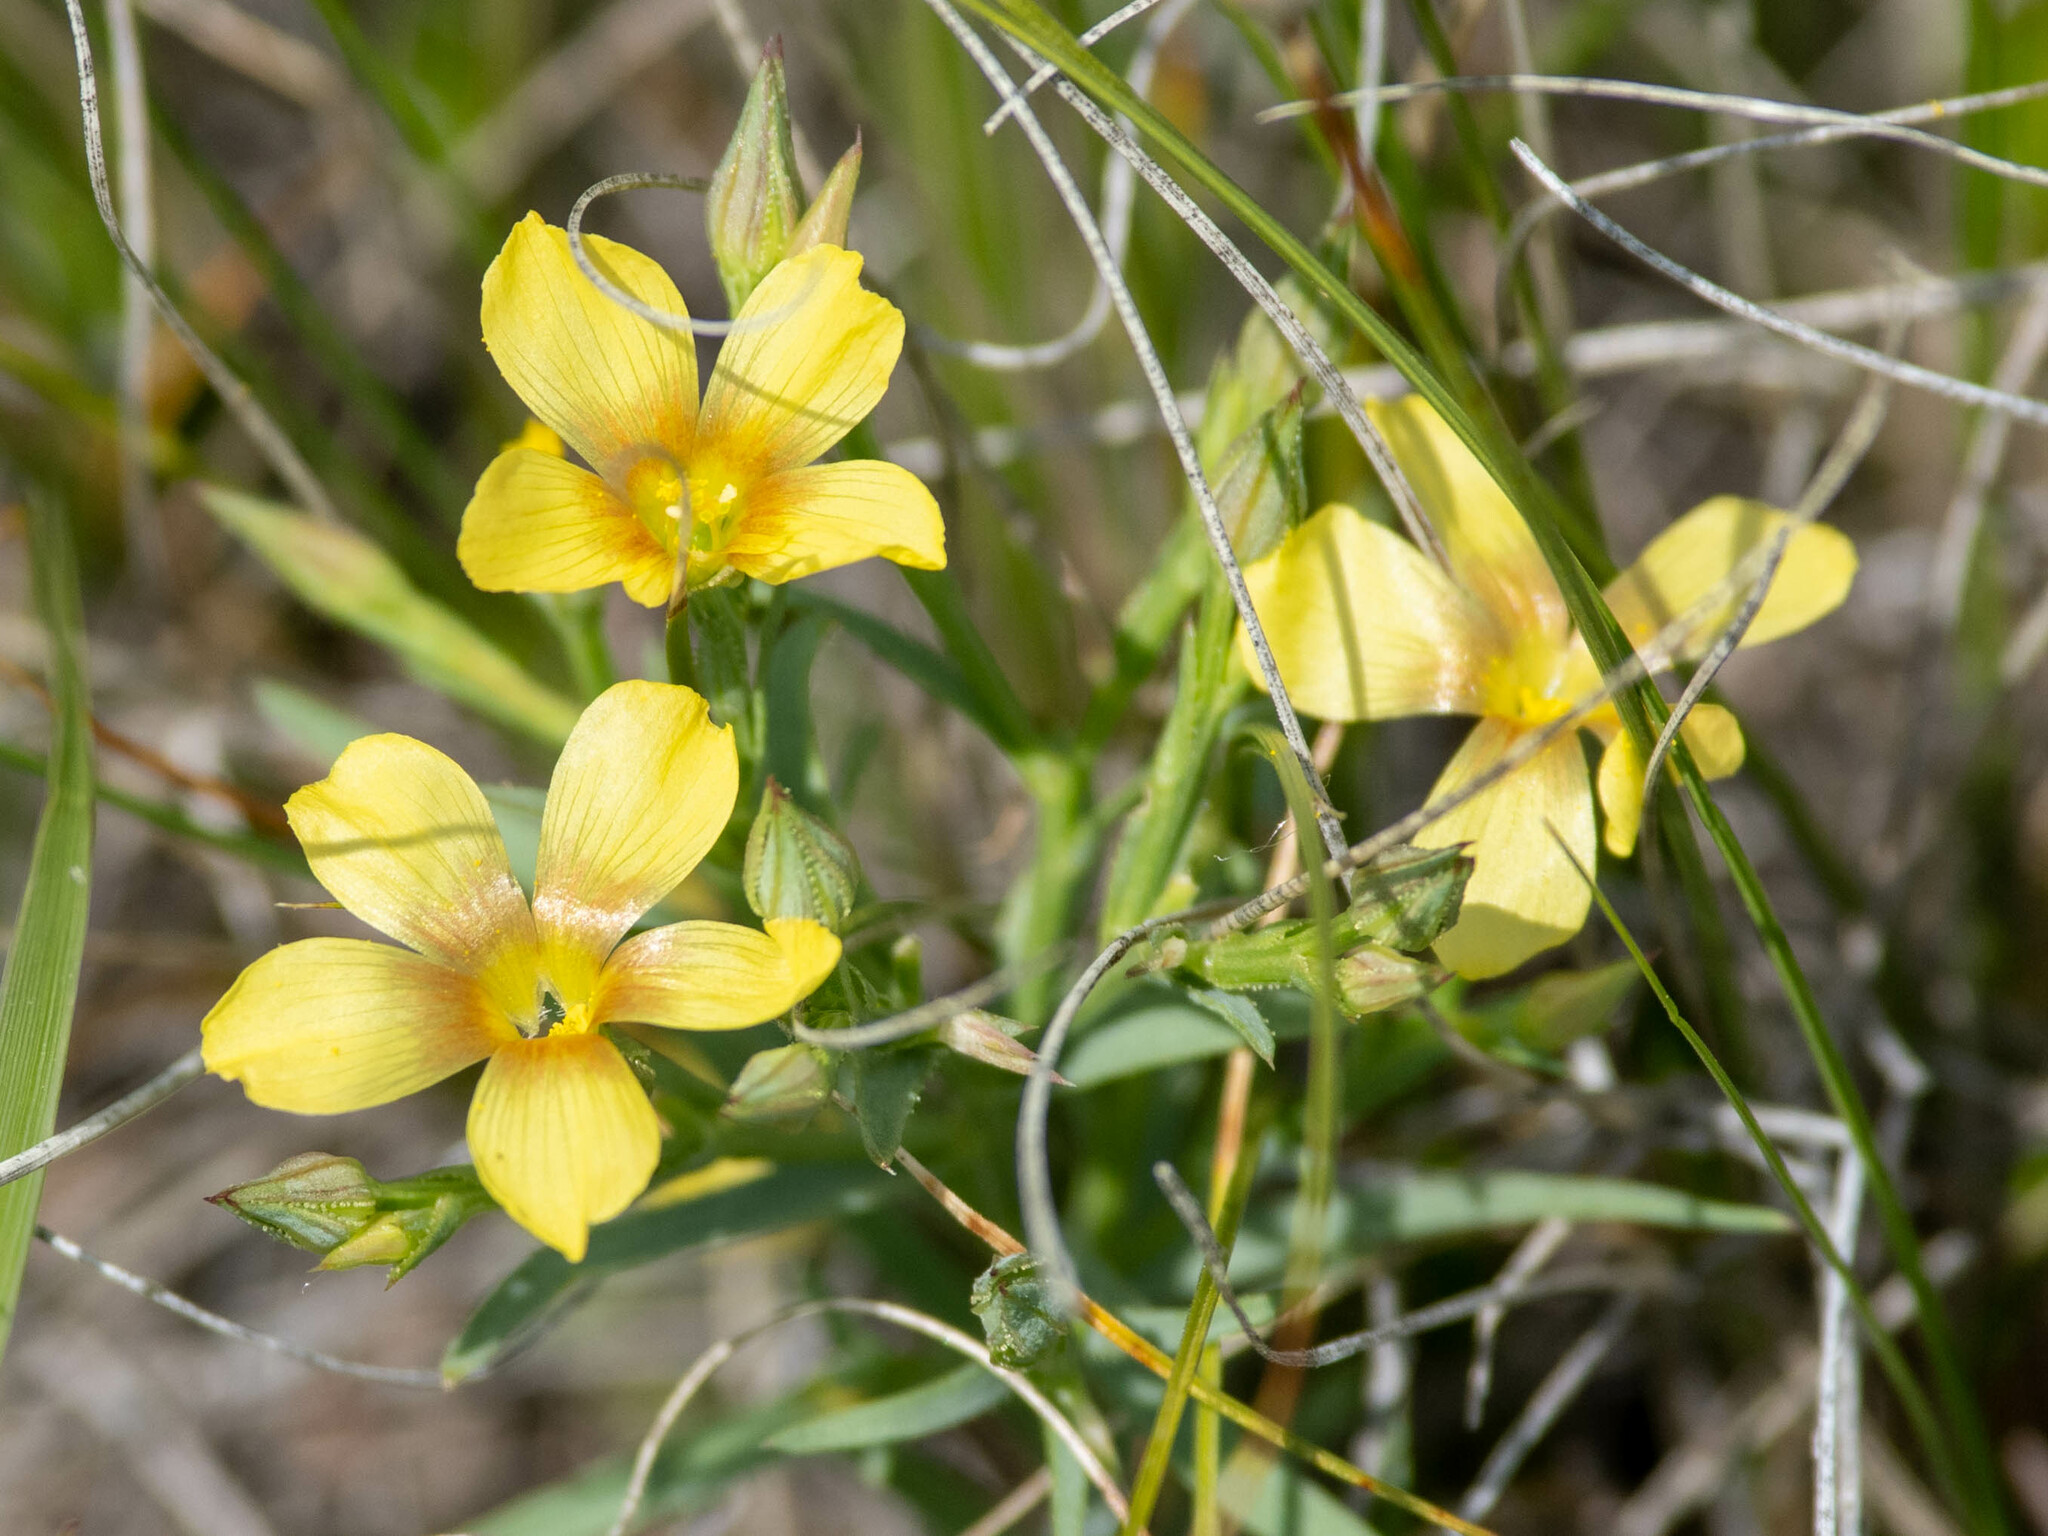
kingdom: Plantae
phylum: Tracheophyta
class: Magnoliopsida
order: Malpighiales
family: Linaceae
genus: Linum
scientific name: Linum compactum
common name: Wyoming flax
